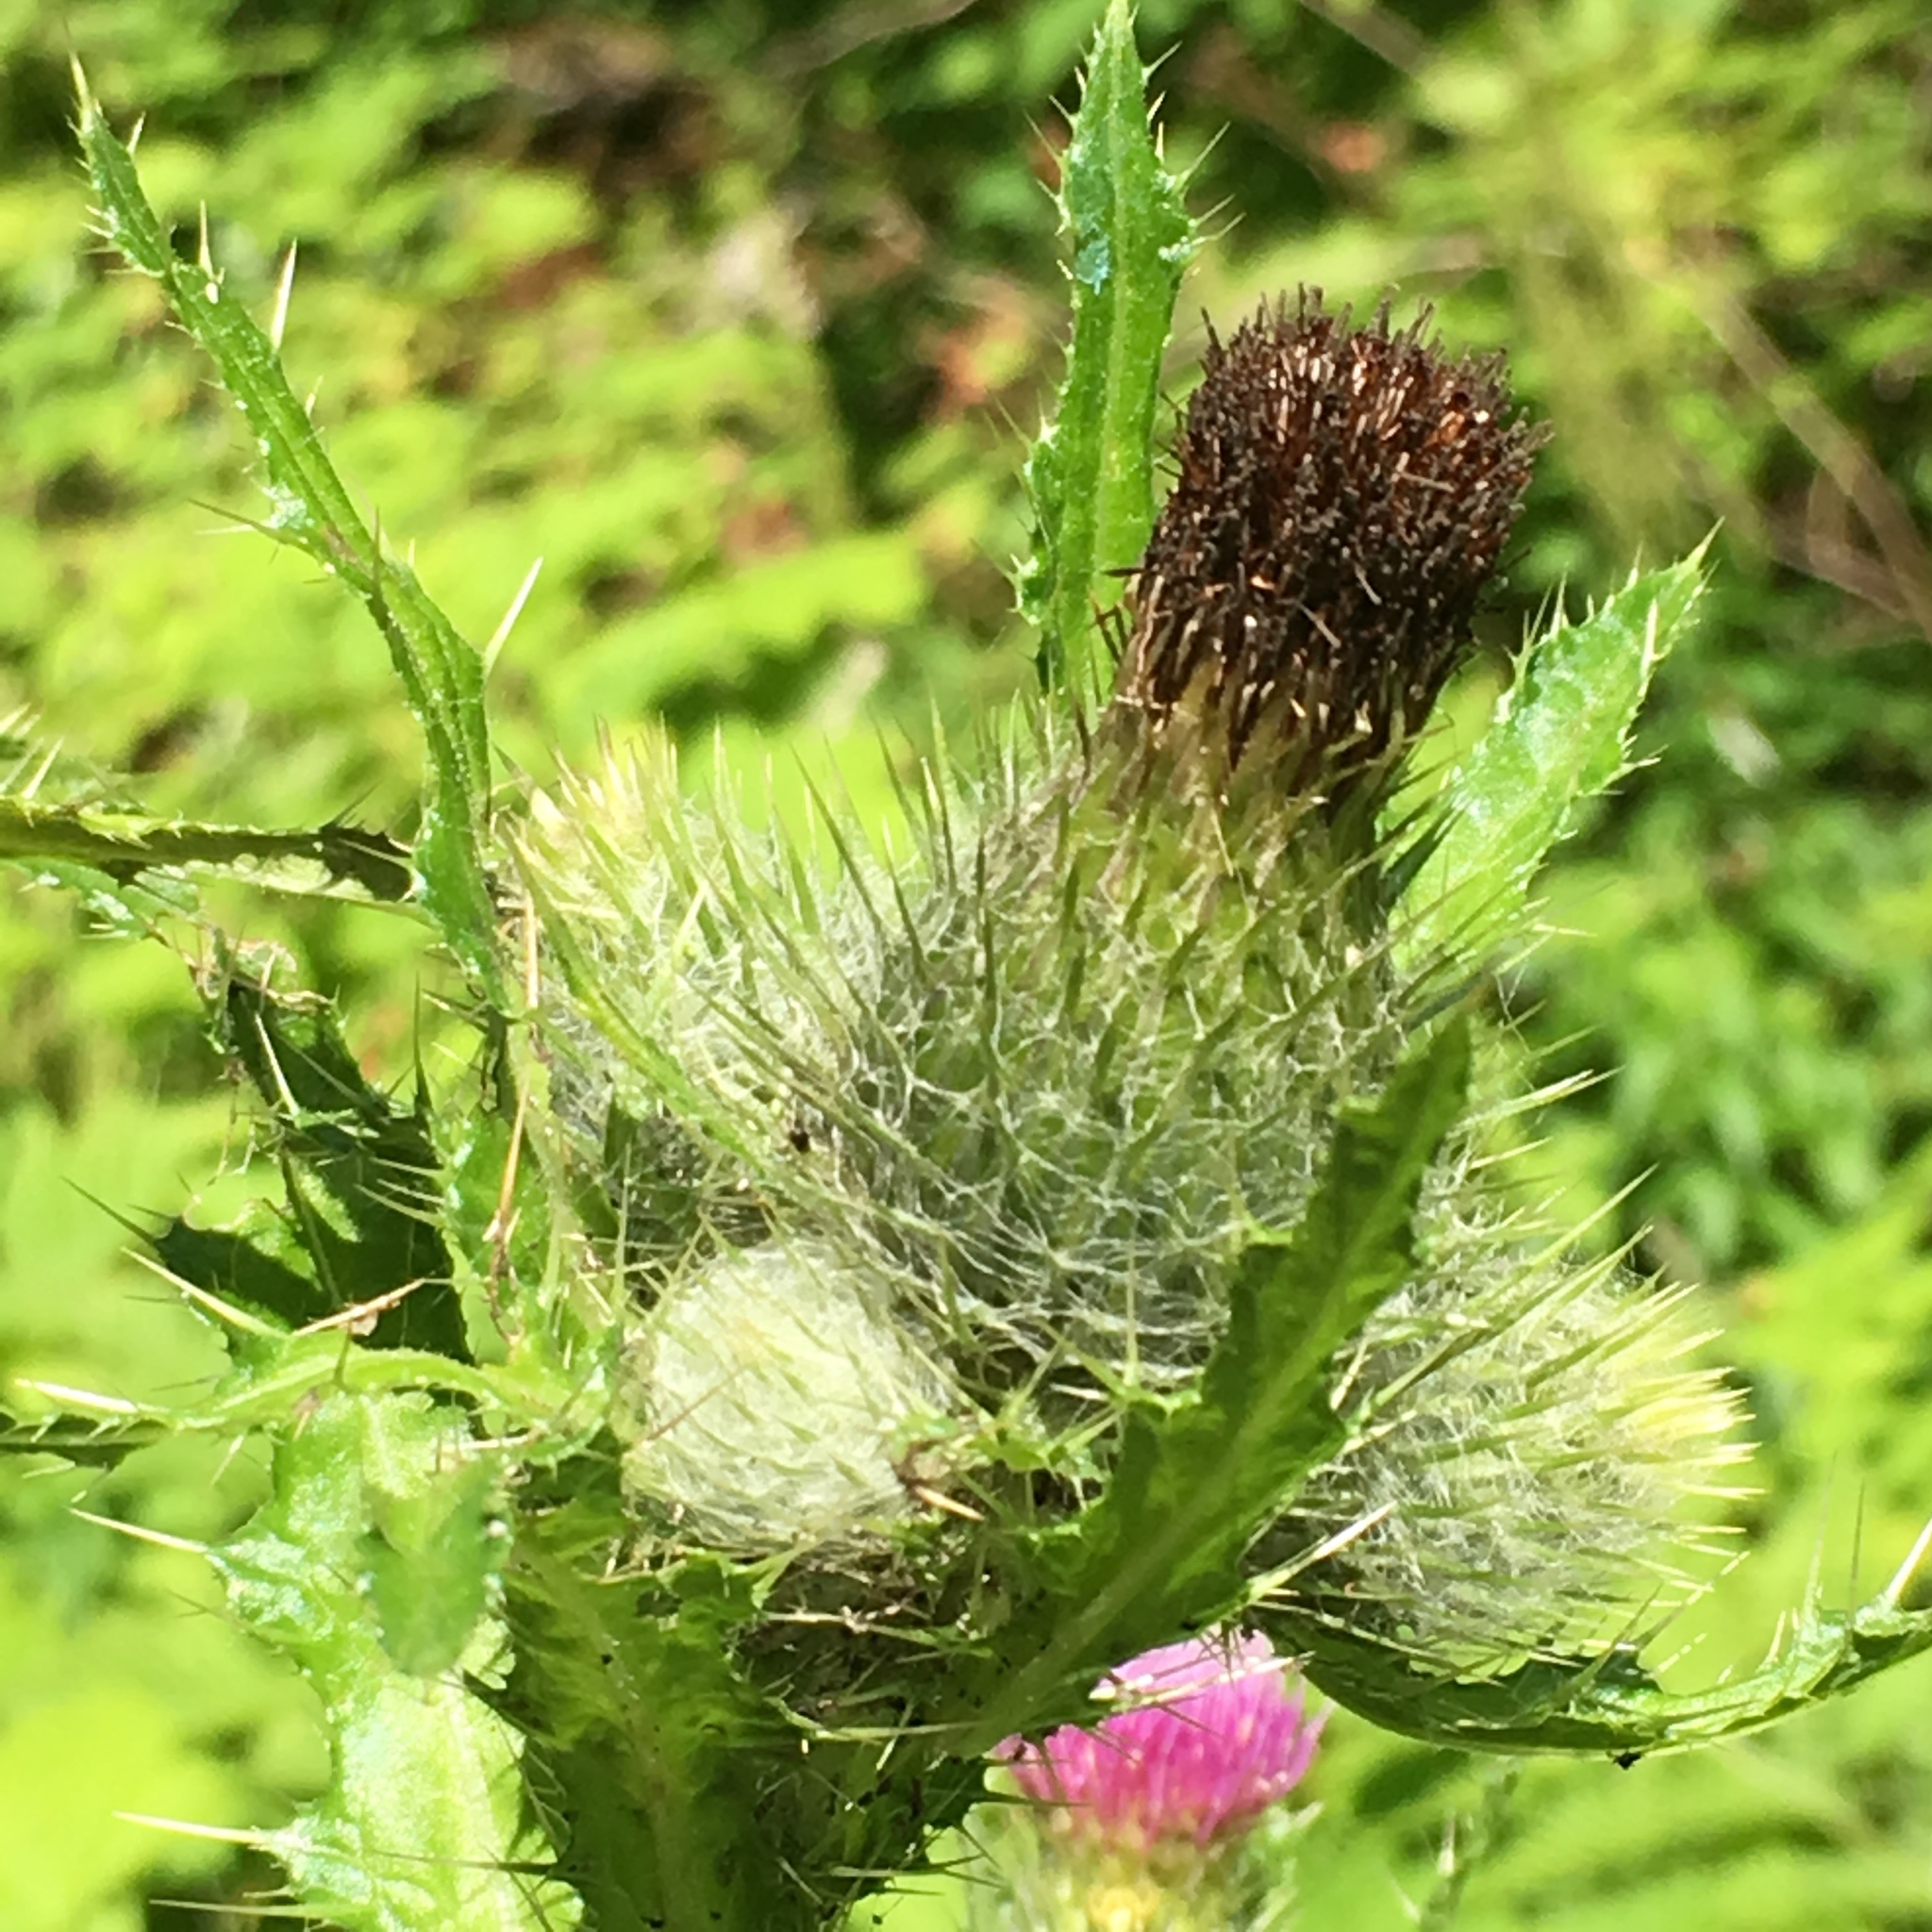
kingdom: Plantae
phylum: Tracheophyta
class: Magnoliopsida
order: Asterales
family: Asteraceae
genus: Cirsium
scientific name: Cirsium brevistylum
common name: Indian thistle
